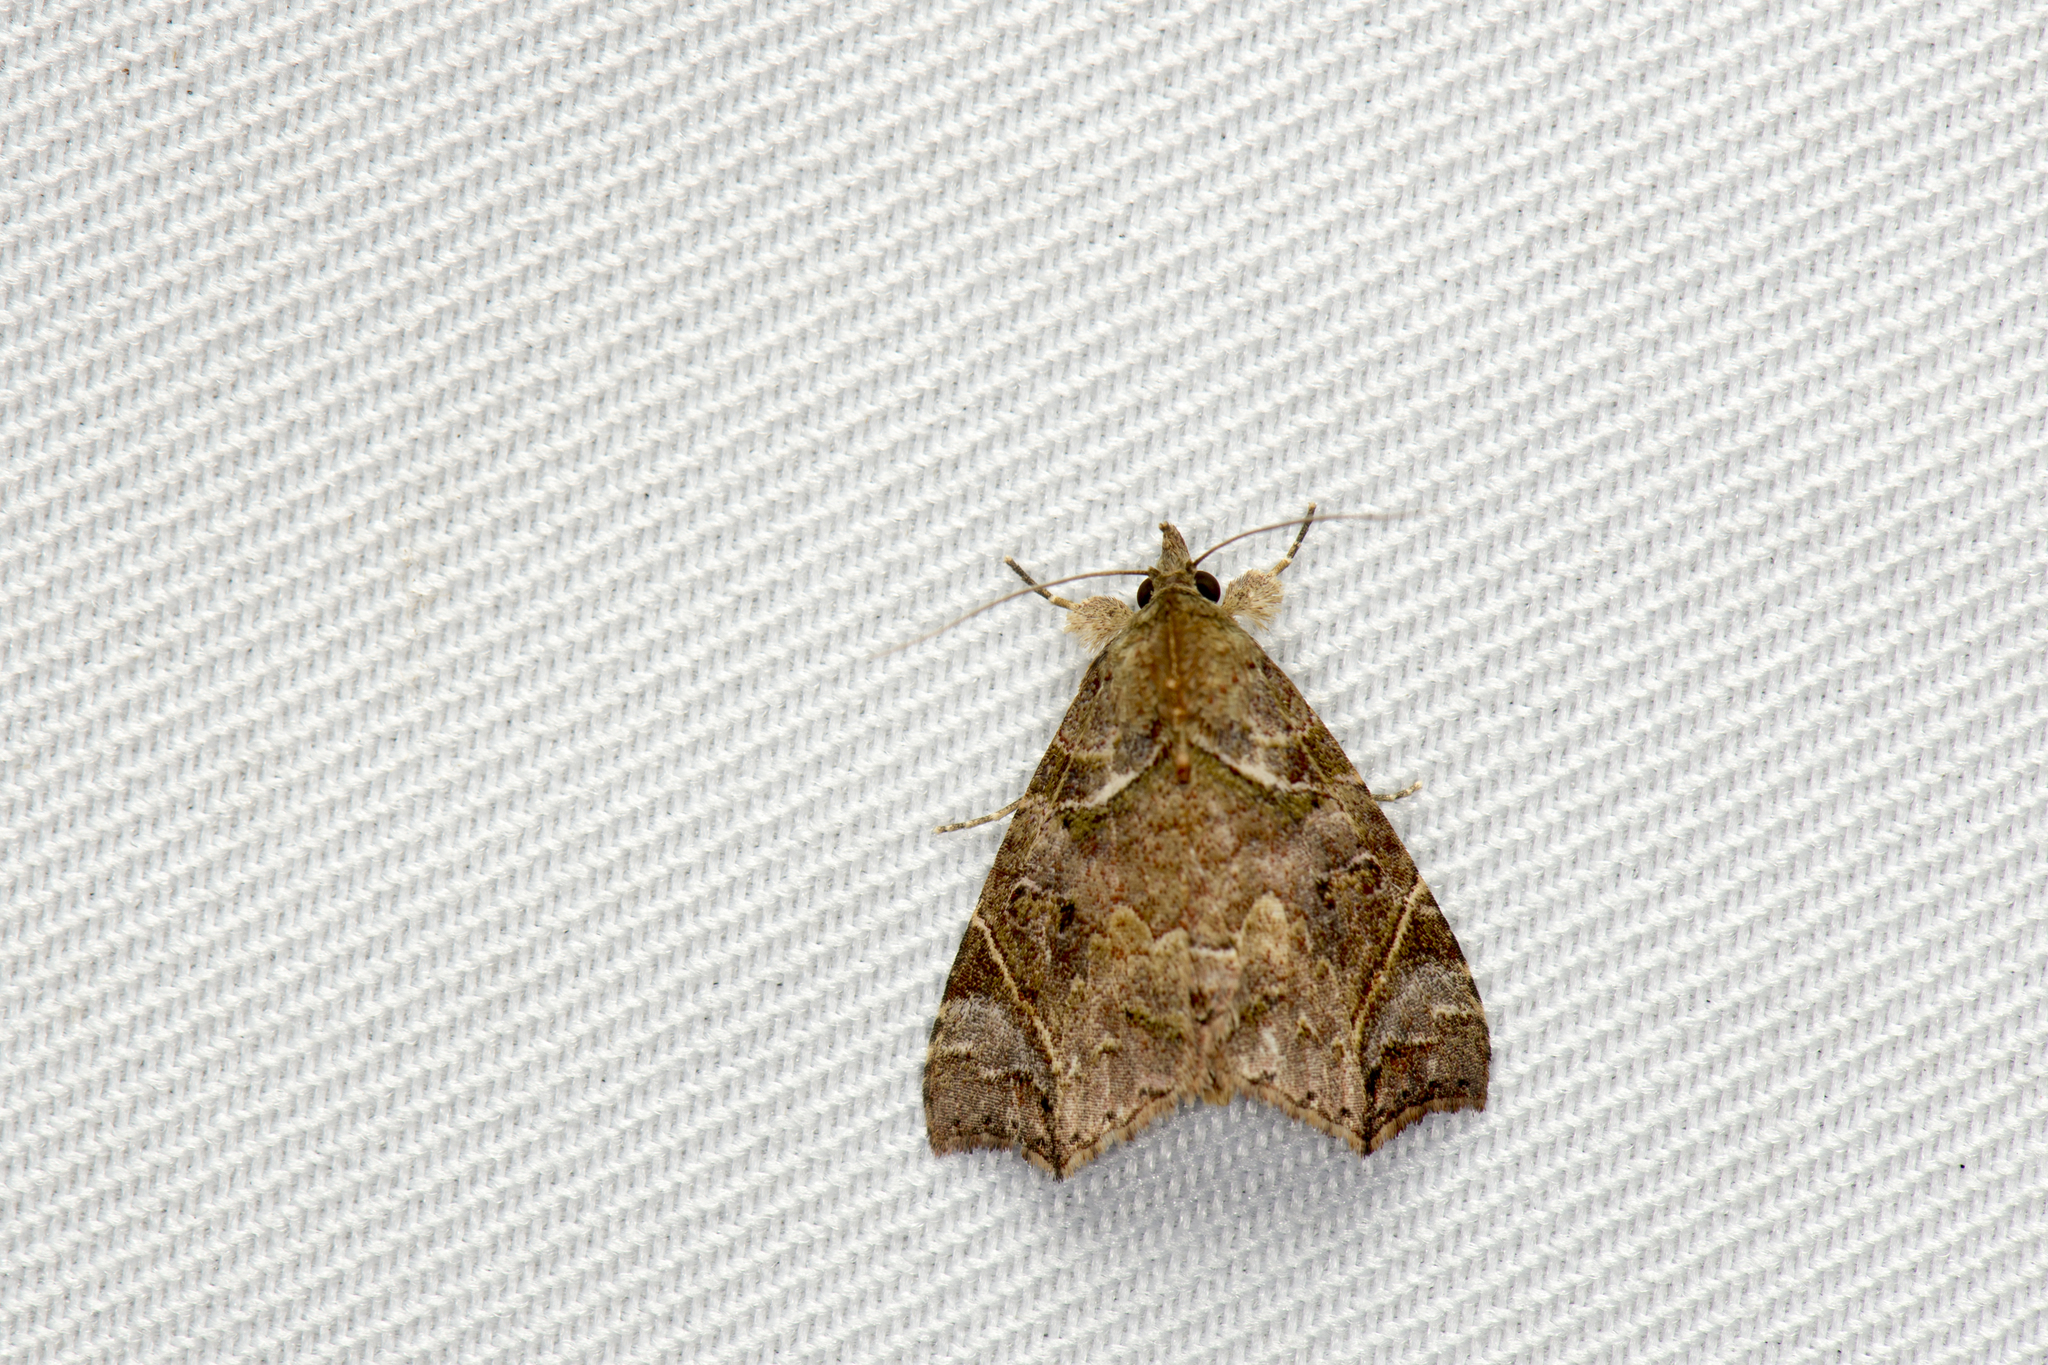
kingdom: Animalia
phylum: Arthropoda
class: Insecta
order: Lepidoptera
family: Erebidae
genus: Parolulis
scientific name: Parolulis renalis
